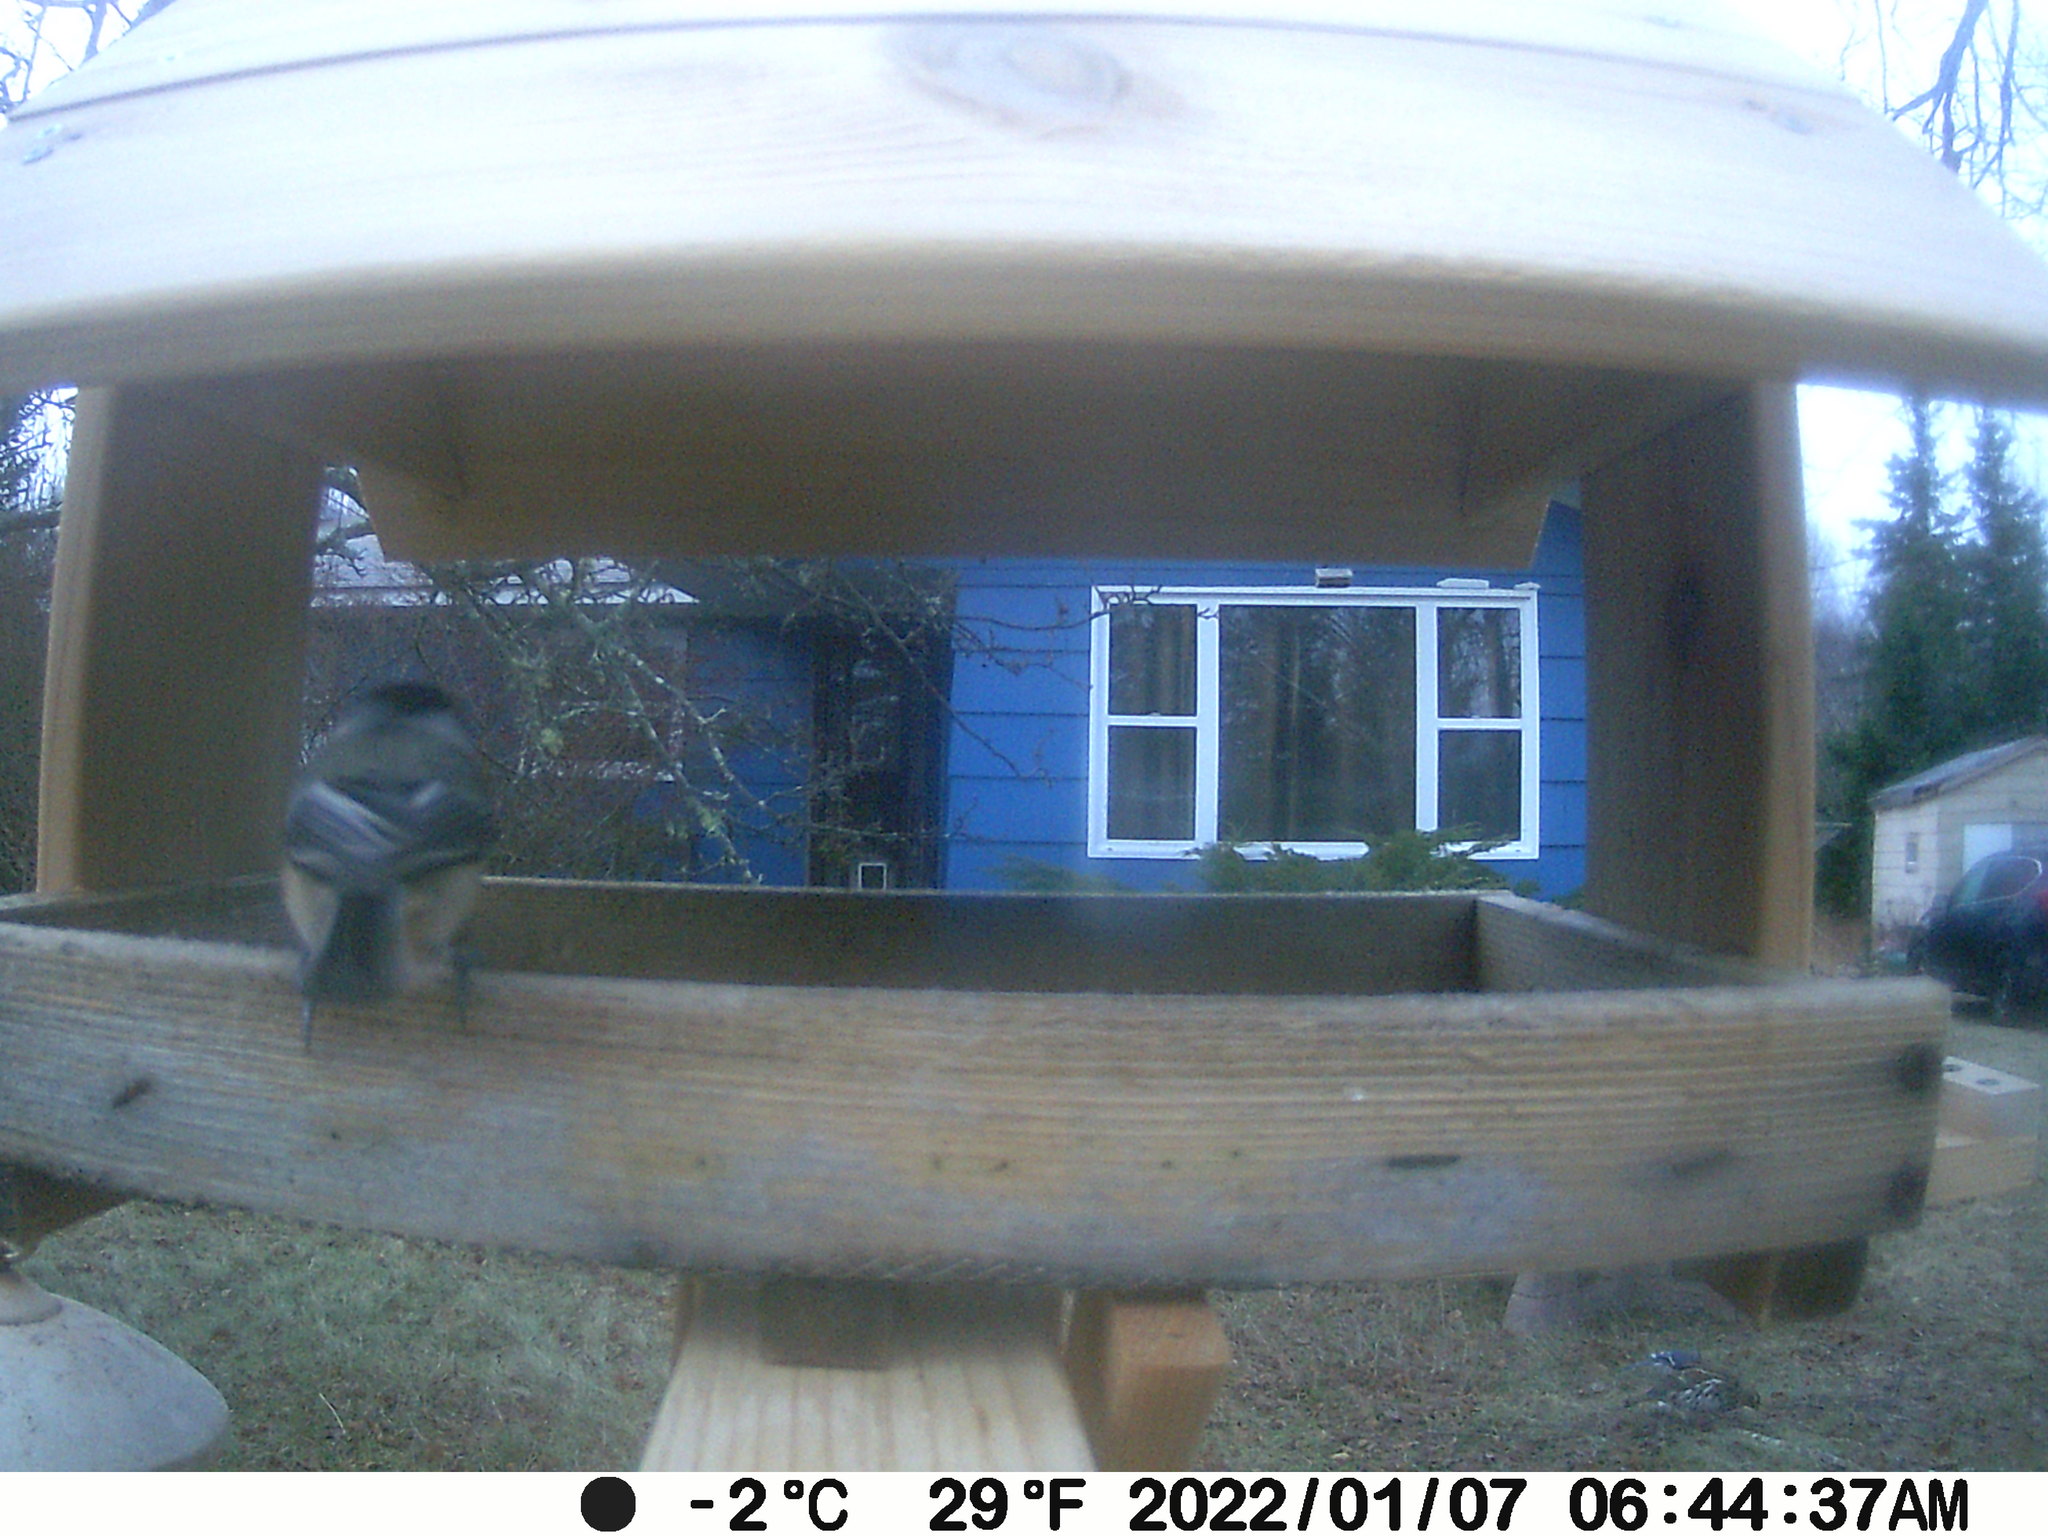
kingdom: Animalia
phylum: Chordata
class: Aves
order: Galliformes
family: Phasianidae
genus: Bonasa
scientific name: Bonasa umbellus
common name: Ruffed grouse
